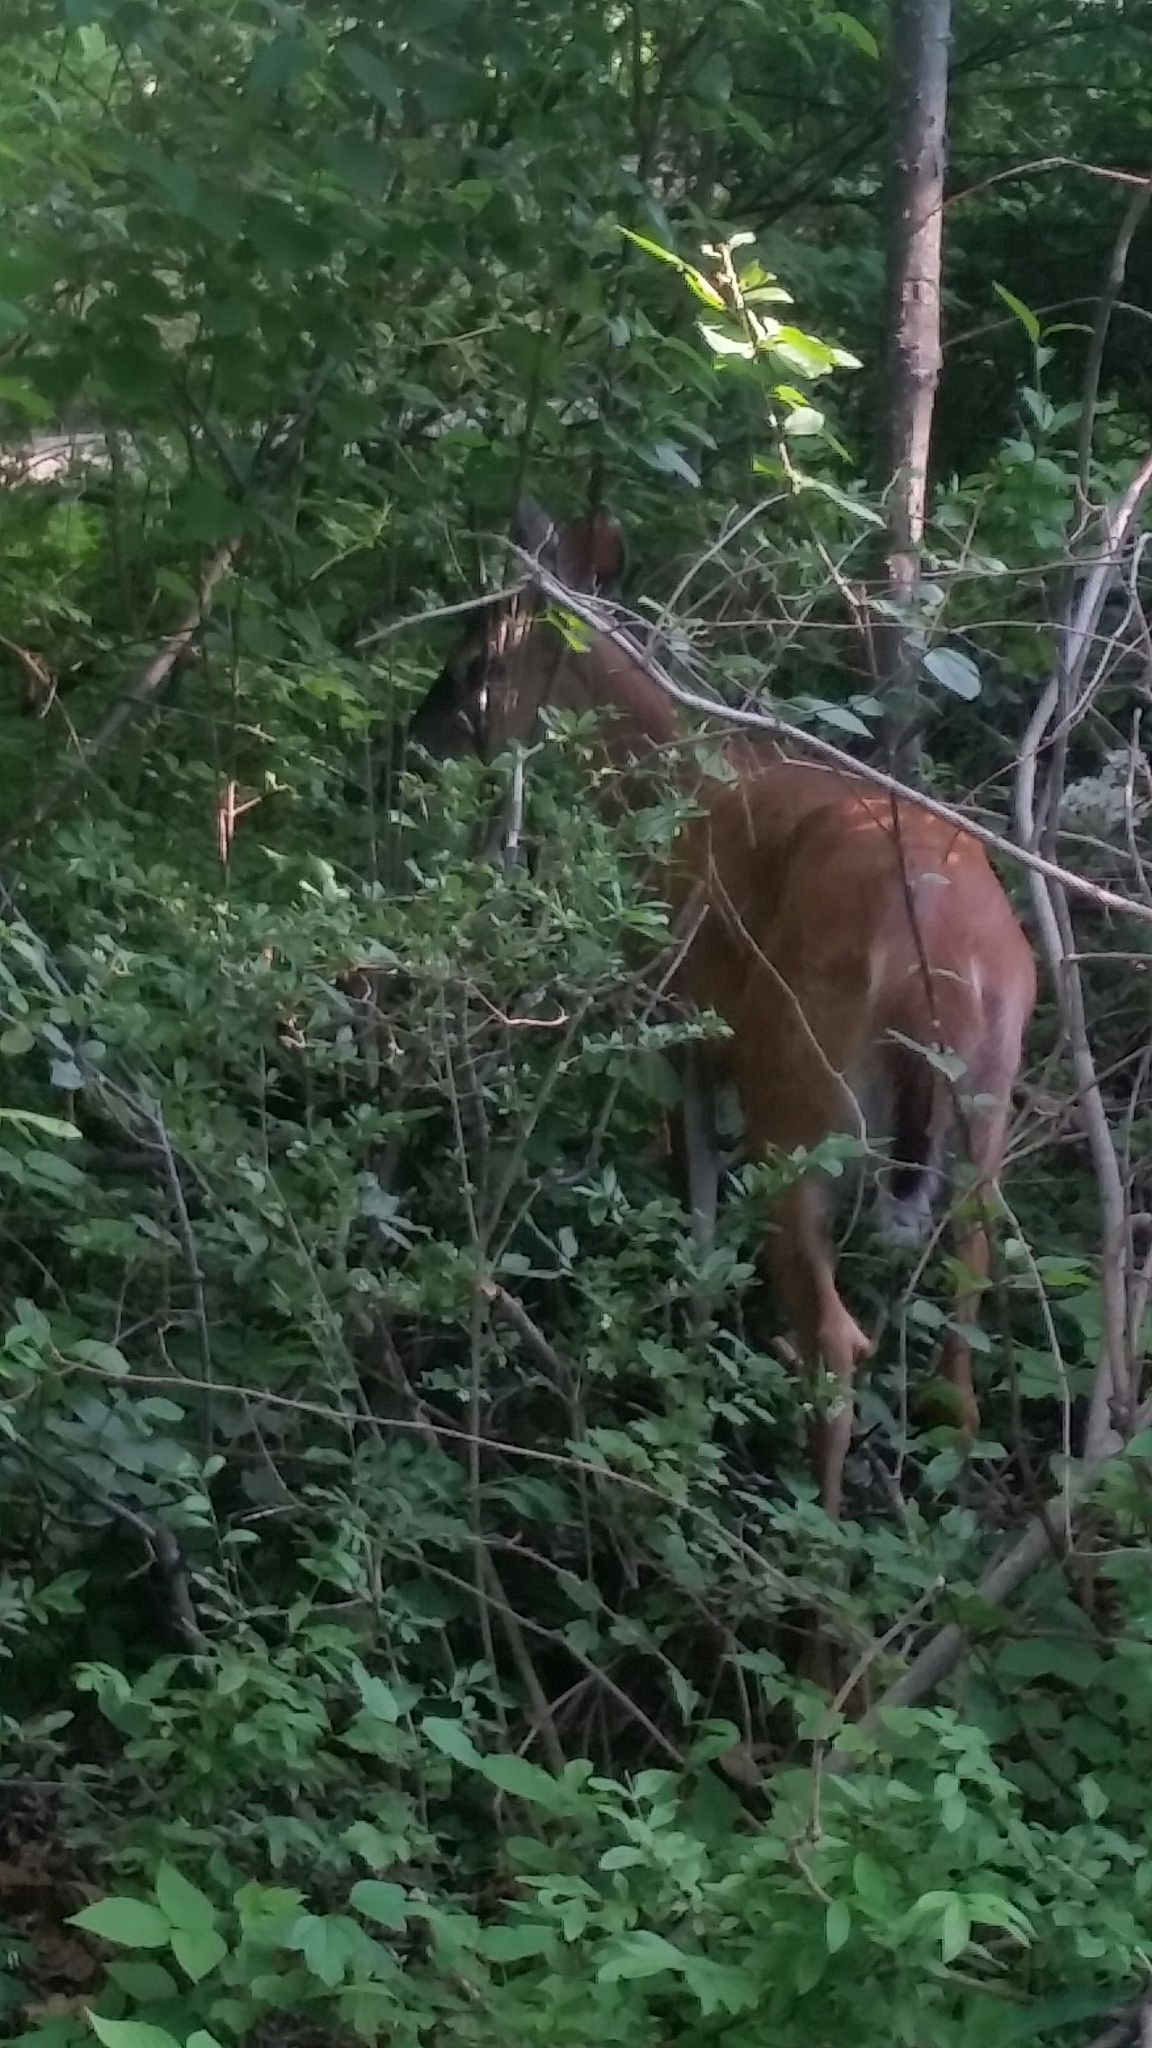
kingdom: Animalia
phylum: Chordata
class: Mammalia
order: Artiodactyla
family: Cervidae
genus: Odocoileus
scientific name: Odocoileus virginianus
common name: White-tailed deer
